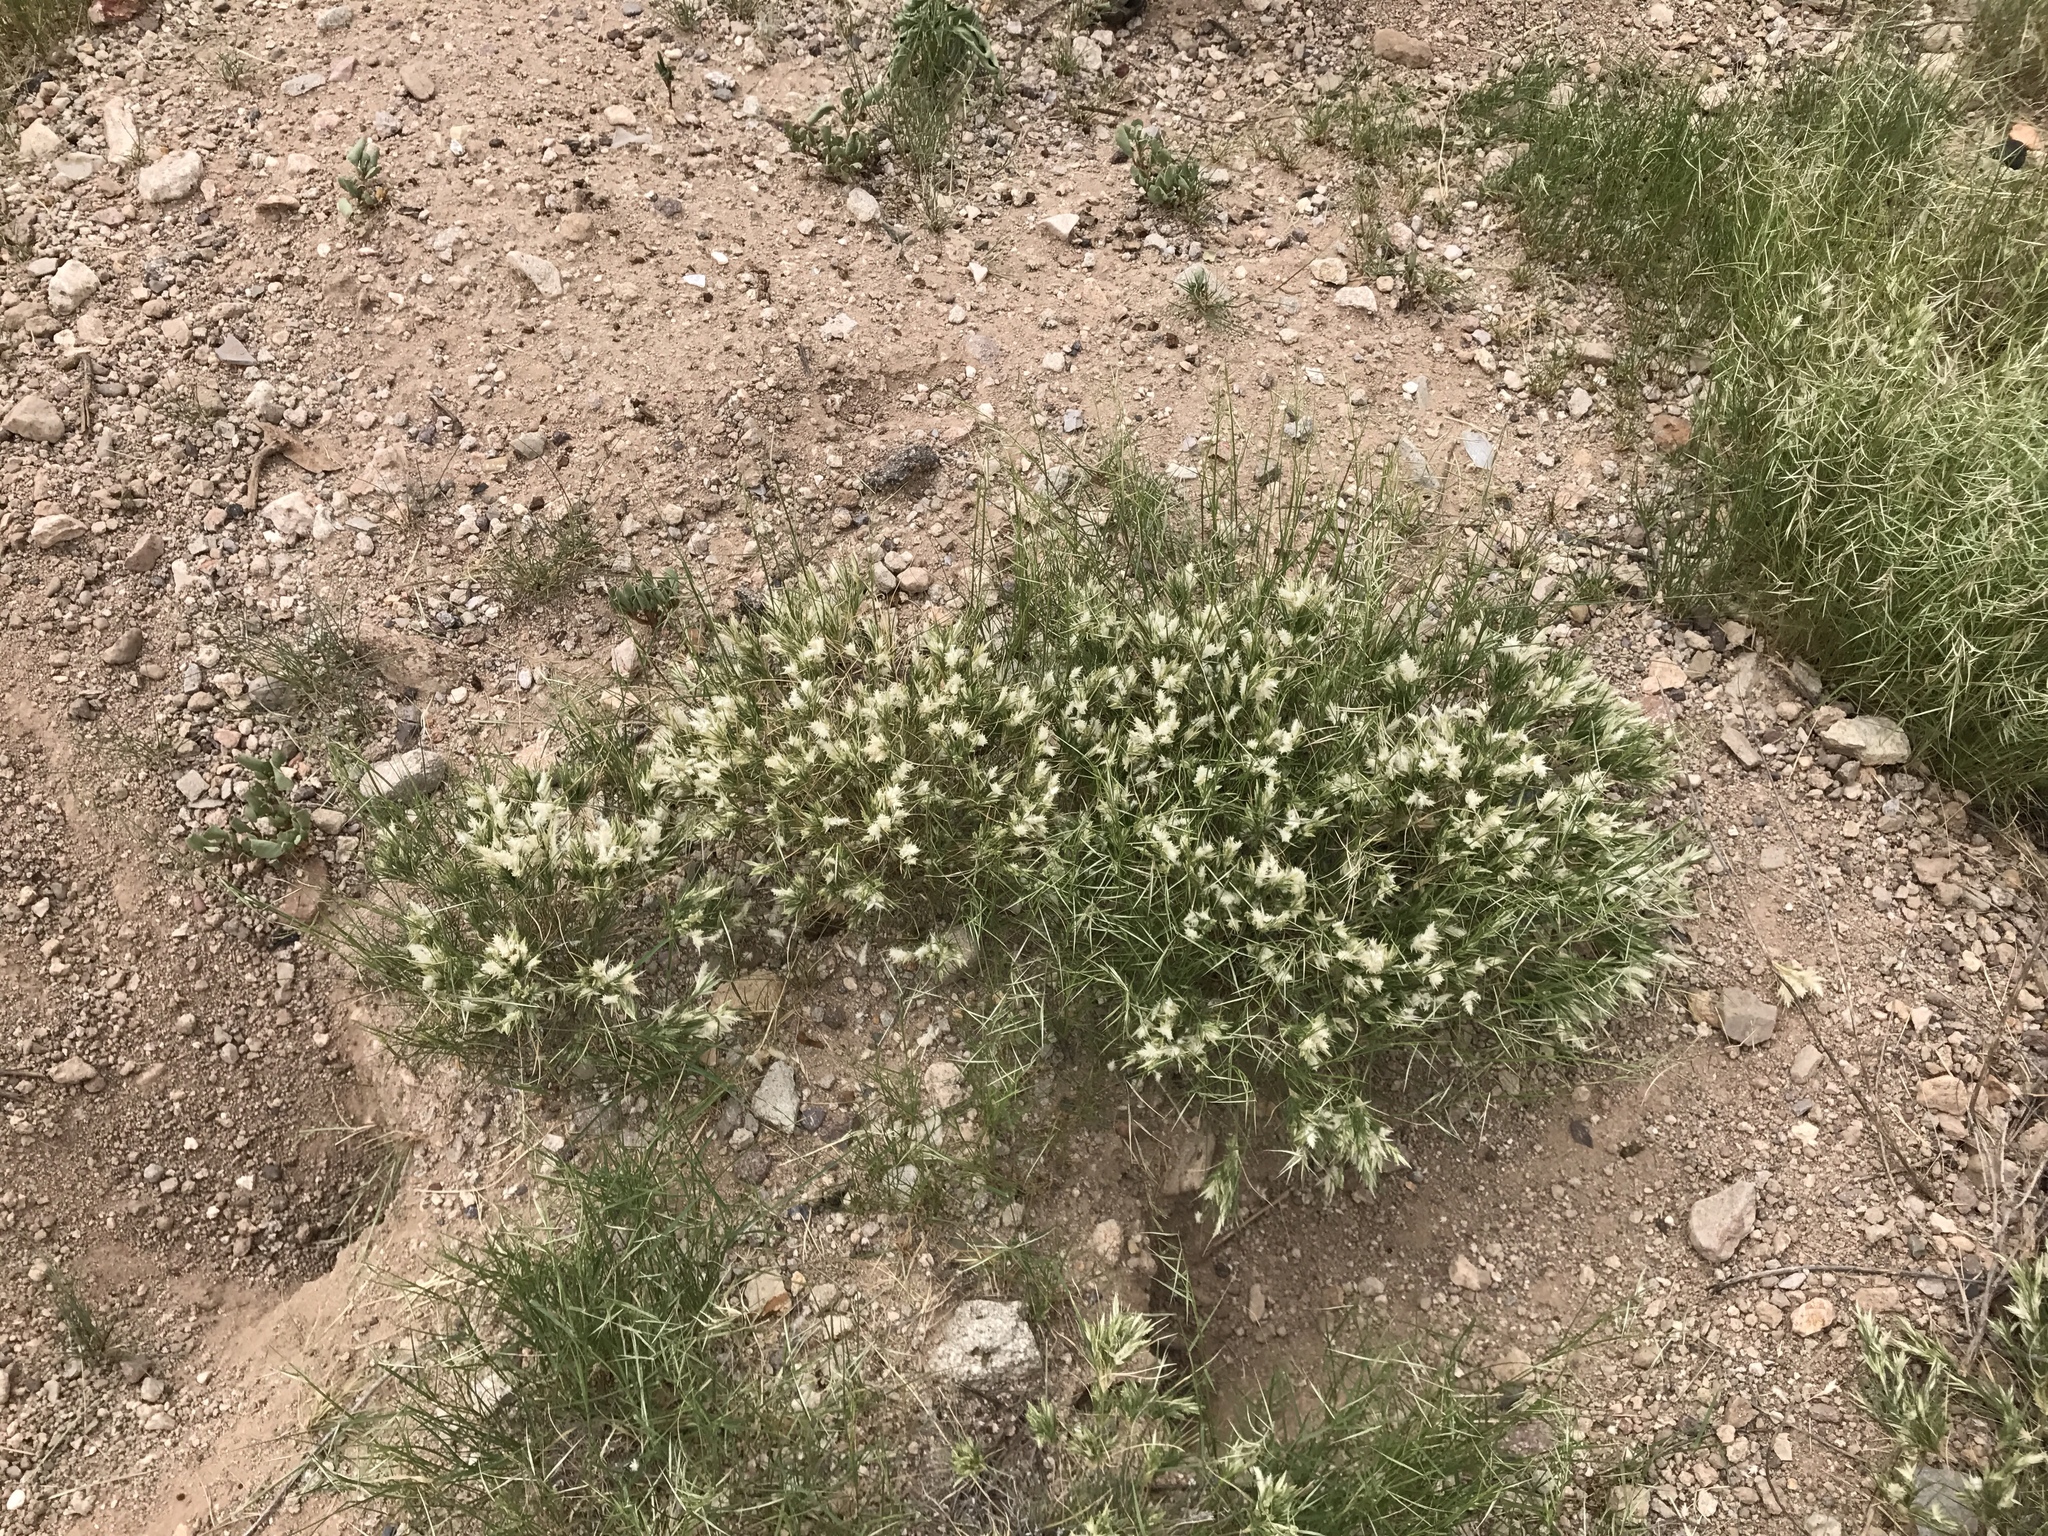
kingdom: Plantae
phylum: Tracheophyta
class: Liliopsida
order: Poales
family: Poaceae
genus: Dasyochloa
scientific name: Dasyochloa pulchella
